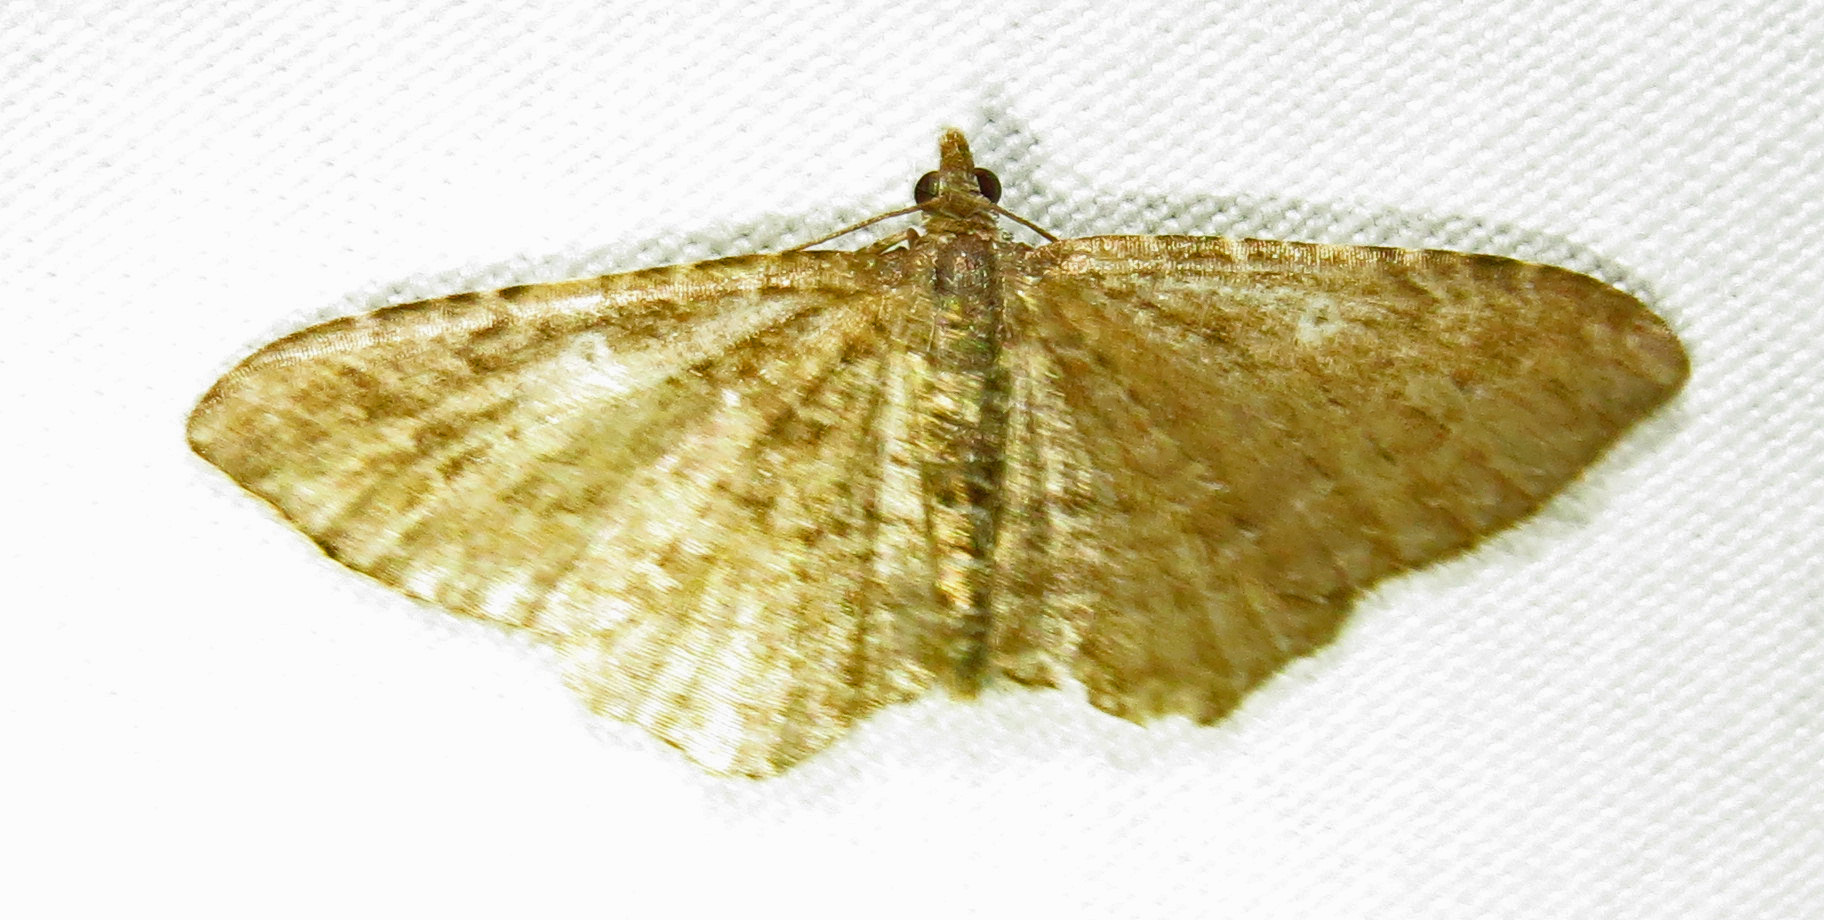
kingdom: Animalia
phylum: Arthropoda
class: Insecta
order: Lepidoptera
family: Geometridae
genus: Orthonama
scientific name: Orthonama obstipata
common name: The gem
